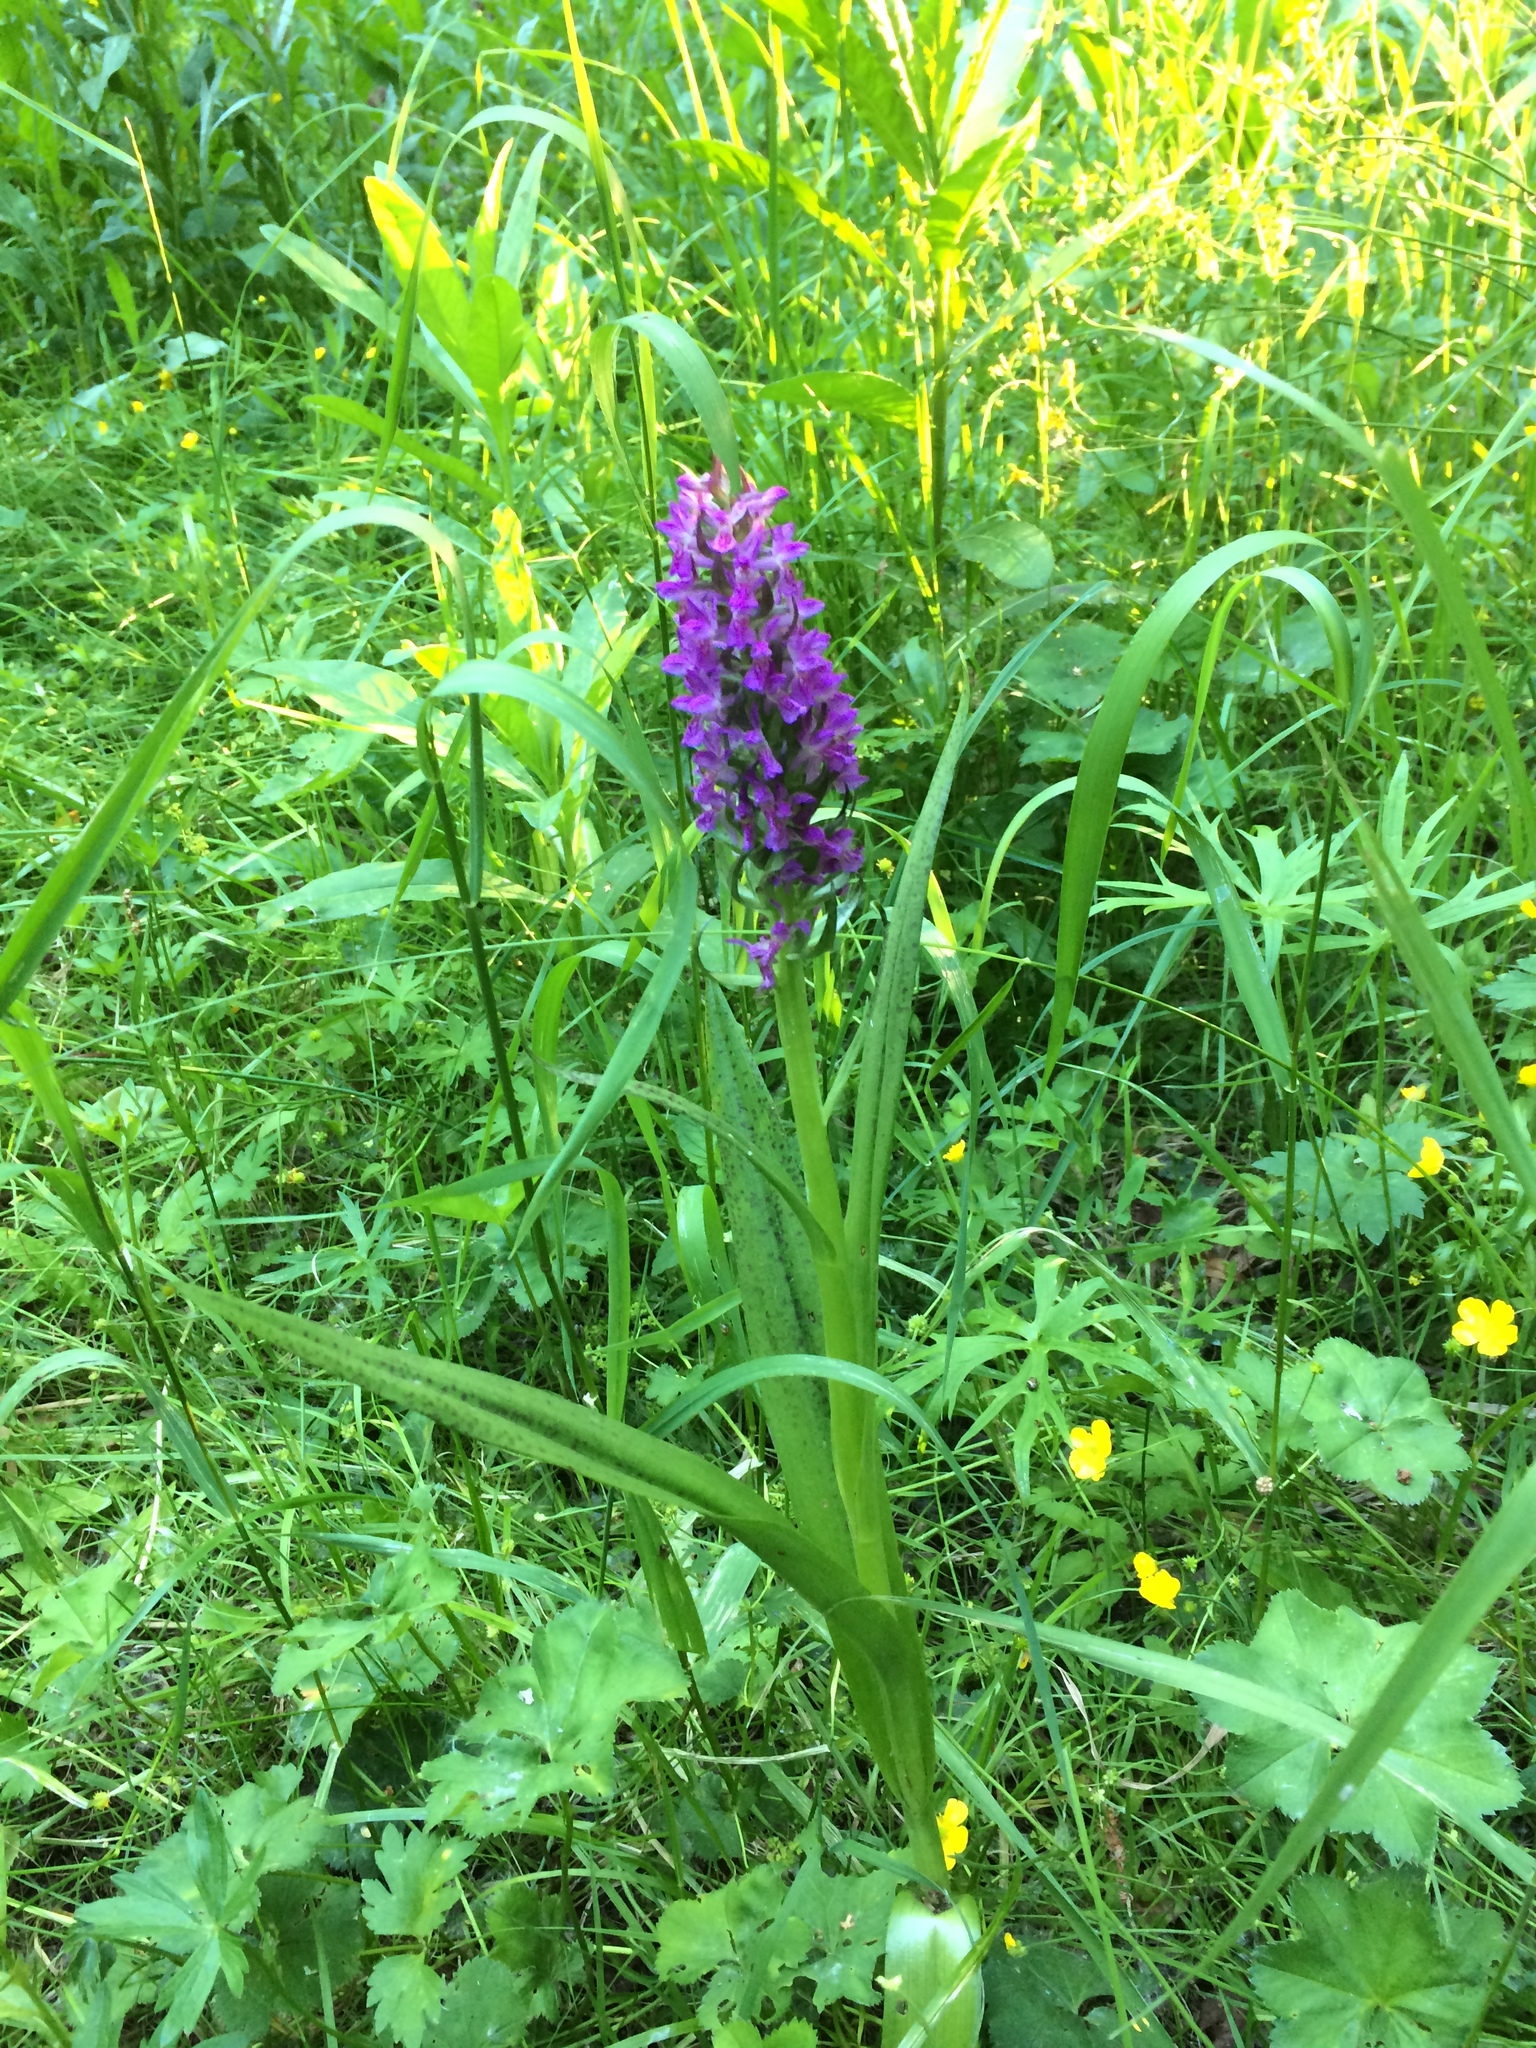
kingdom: Plantae
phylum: Tracheophyta
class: Liliopsida
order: Asparagales
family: Orchidaceae
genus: Dactylorhiza
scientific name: Dactylorhiza incarnata
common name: Early marsh-orchid
